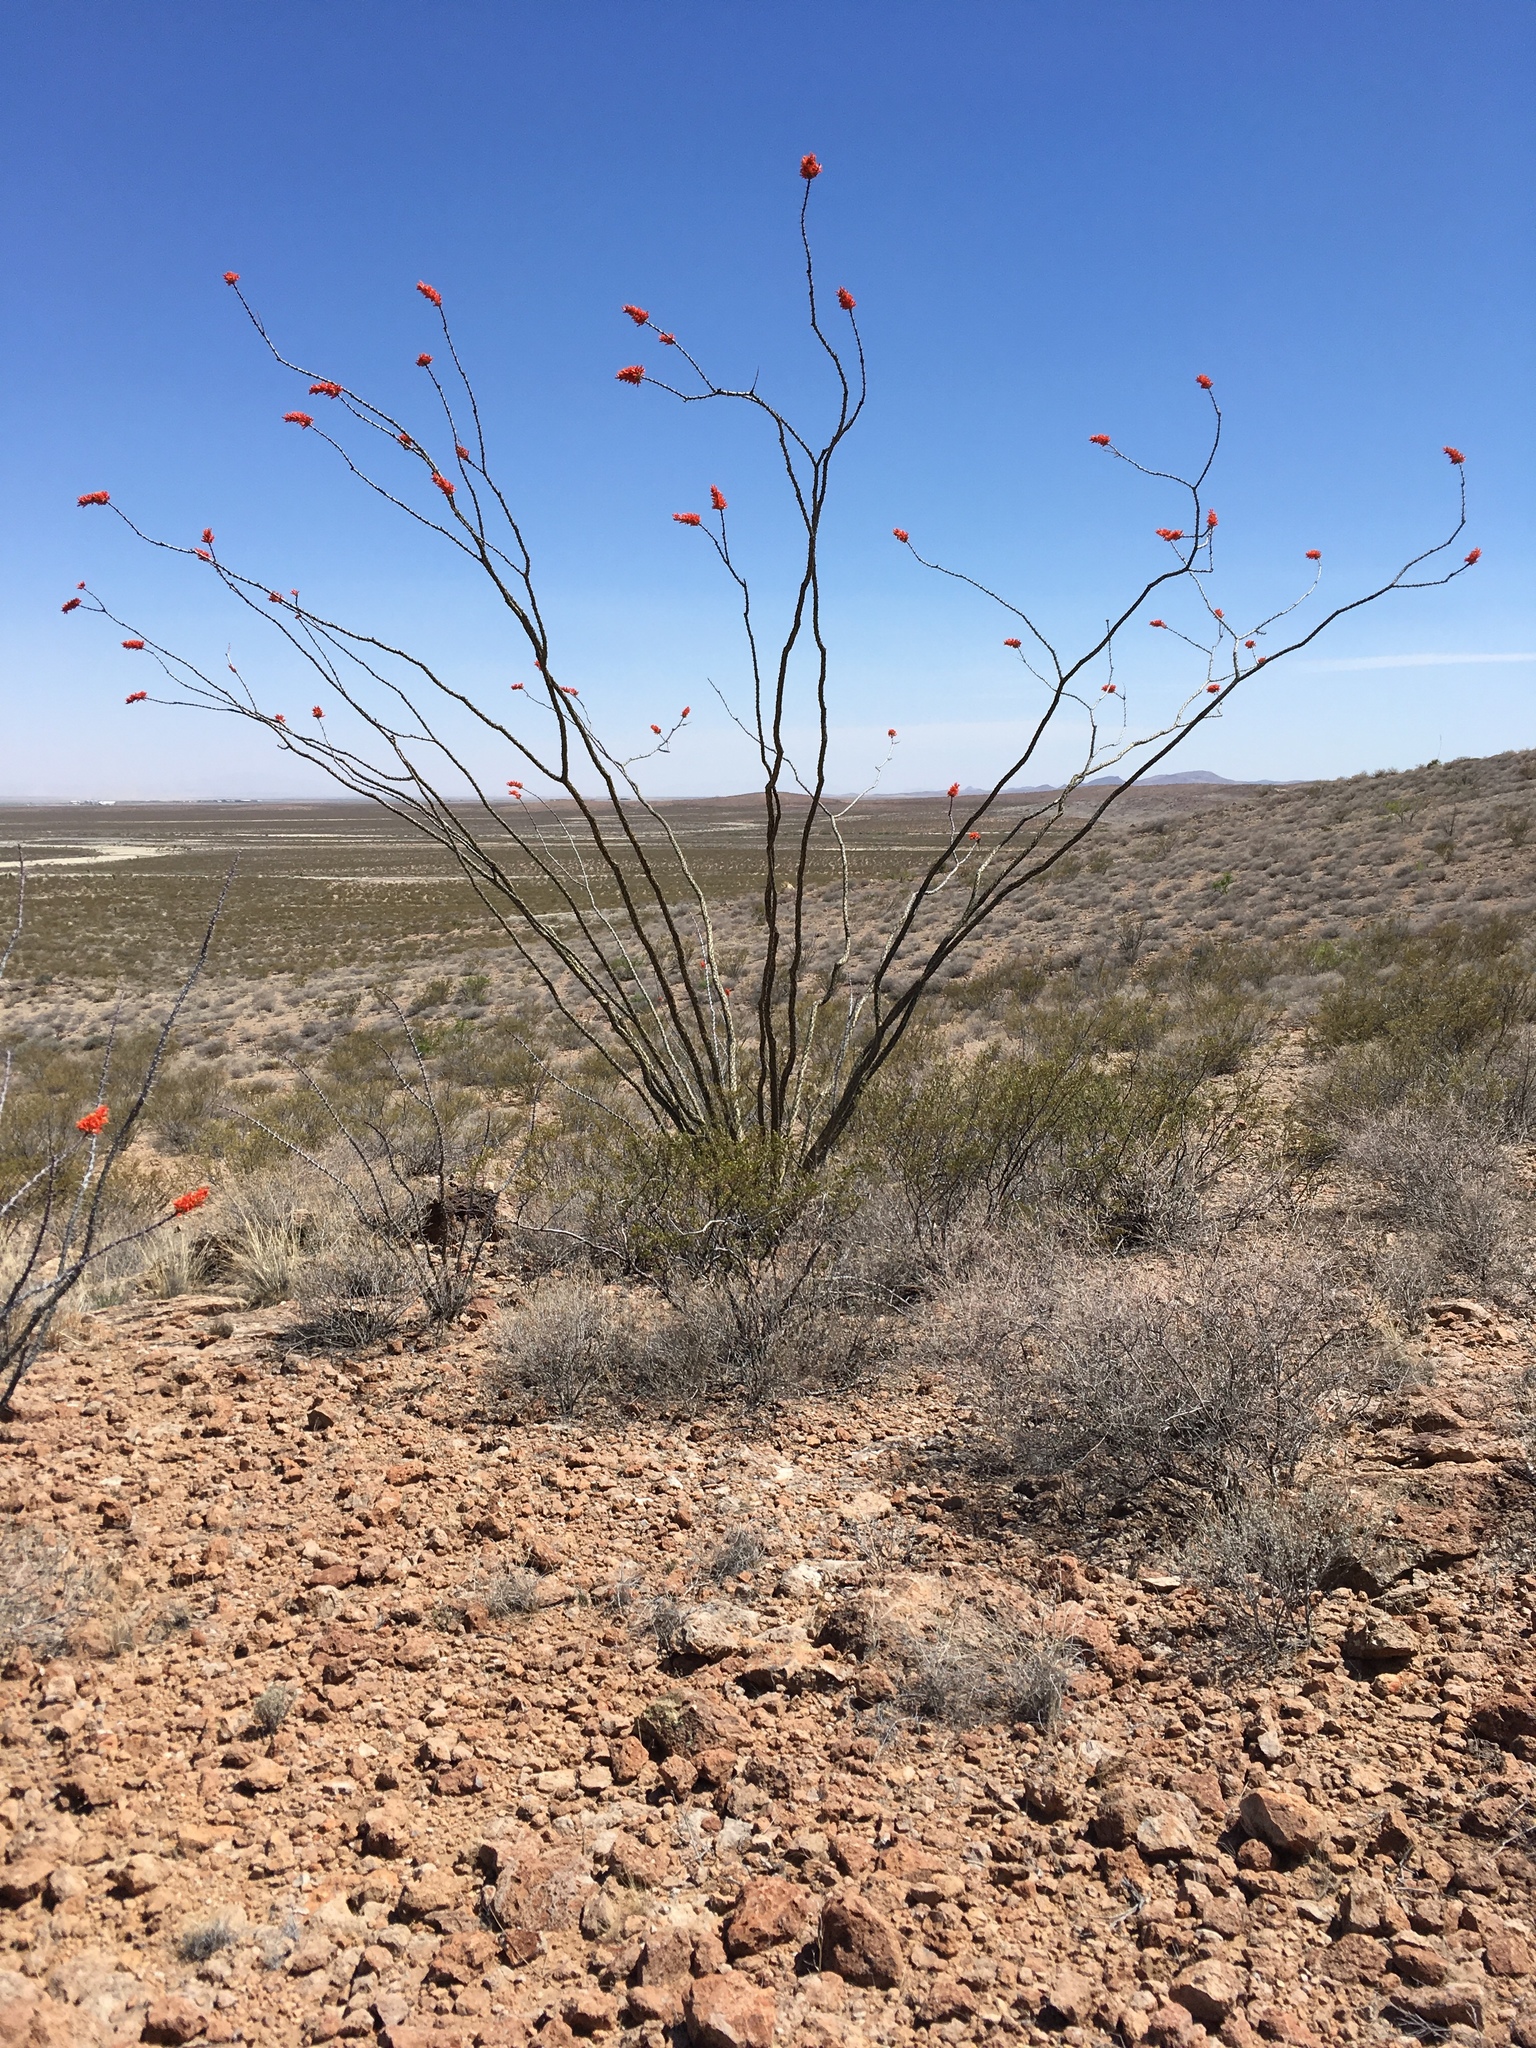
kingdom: Plantae
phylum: Tracheophyta
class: Magnoliopsida
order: Ericales
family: Fouquieriaceae
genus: Fouquieria
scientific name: Fouquieria splendens
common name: Vine-cactus
